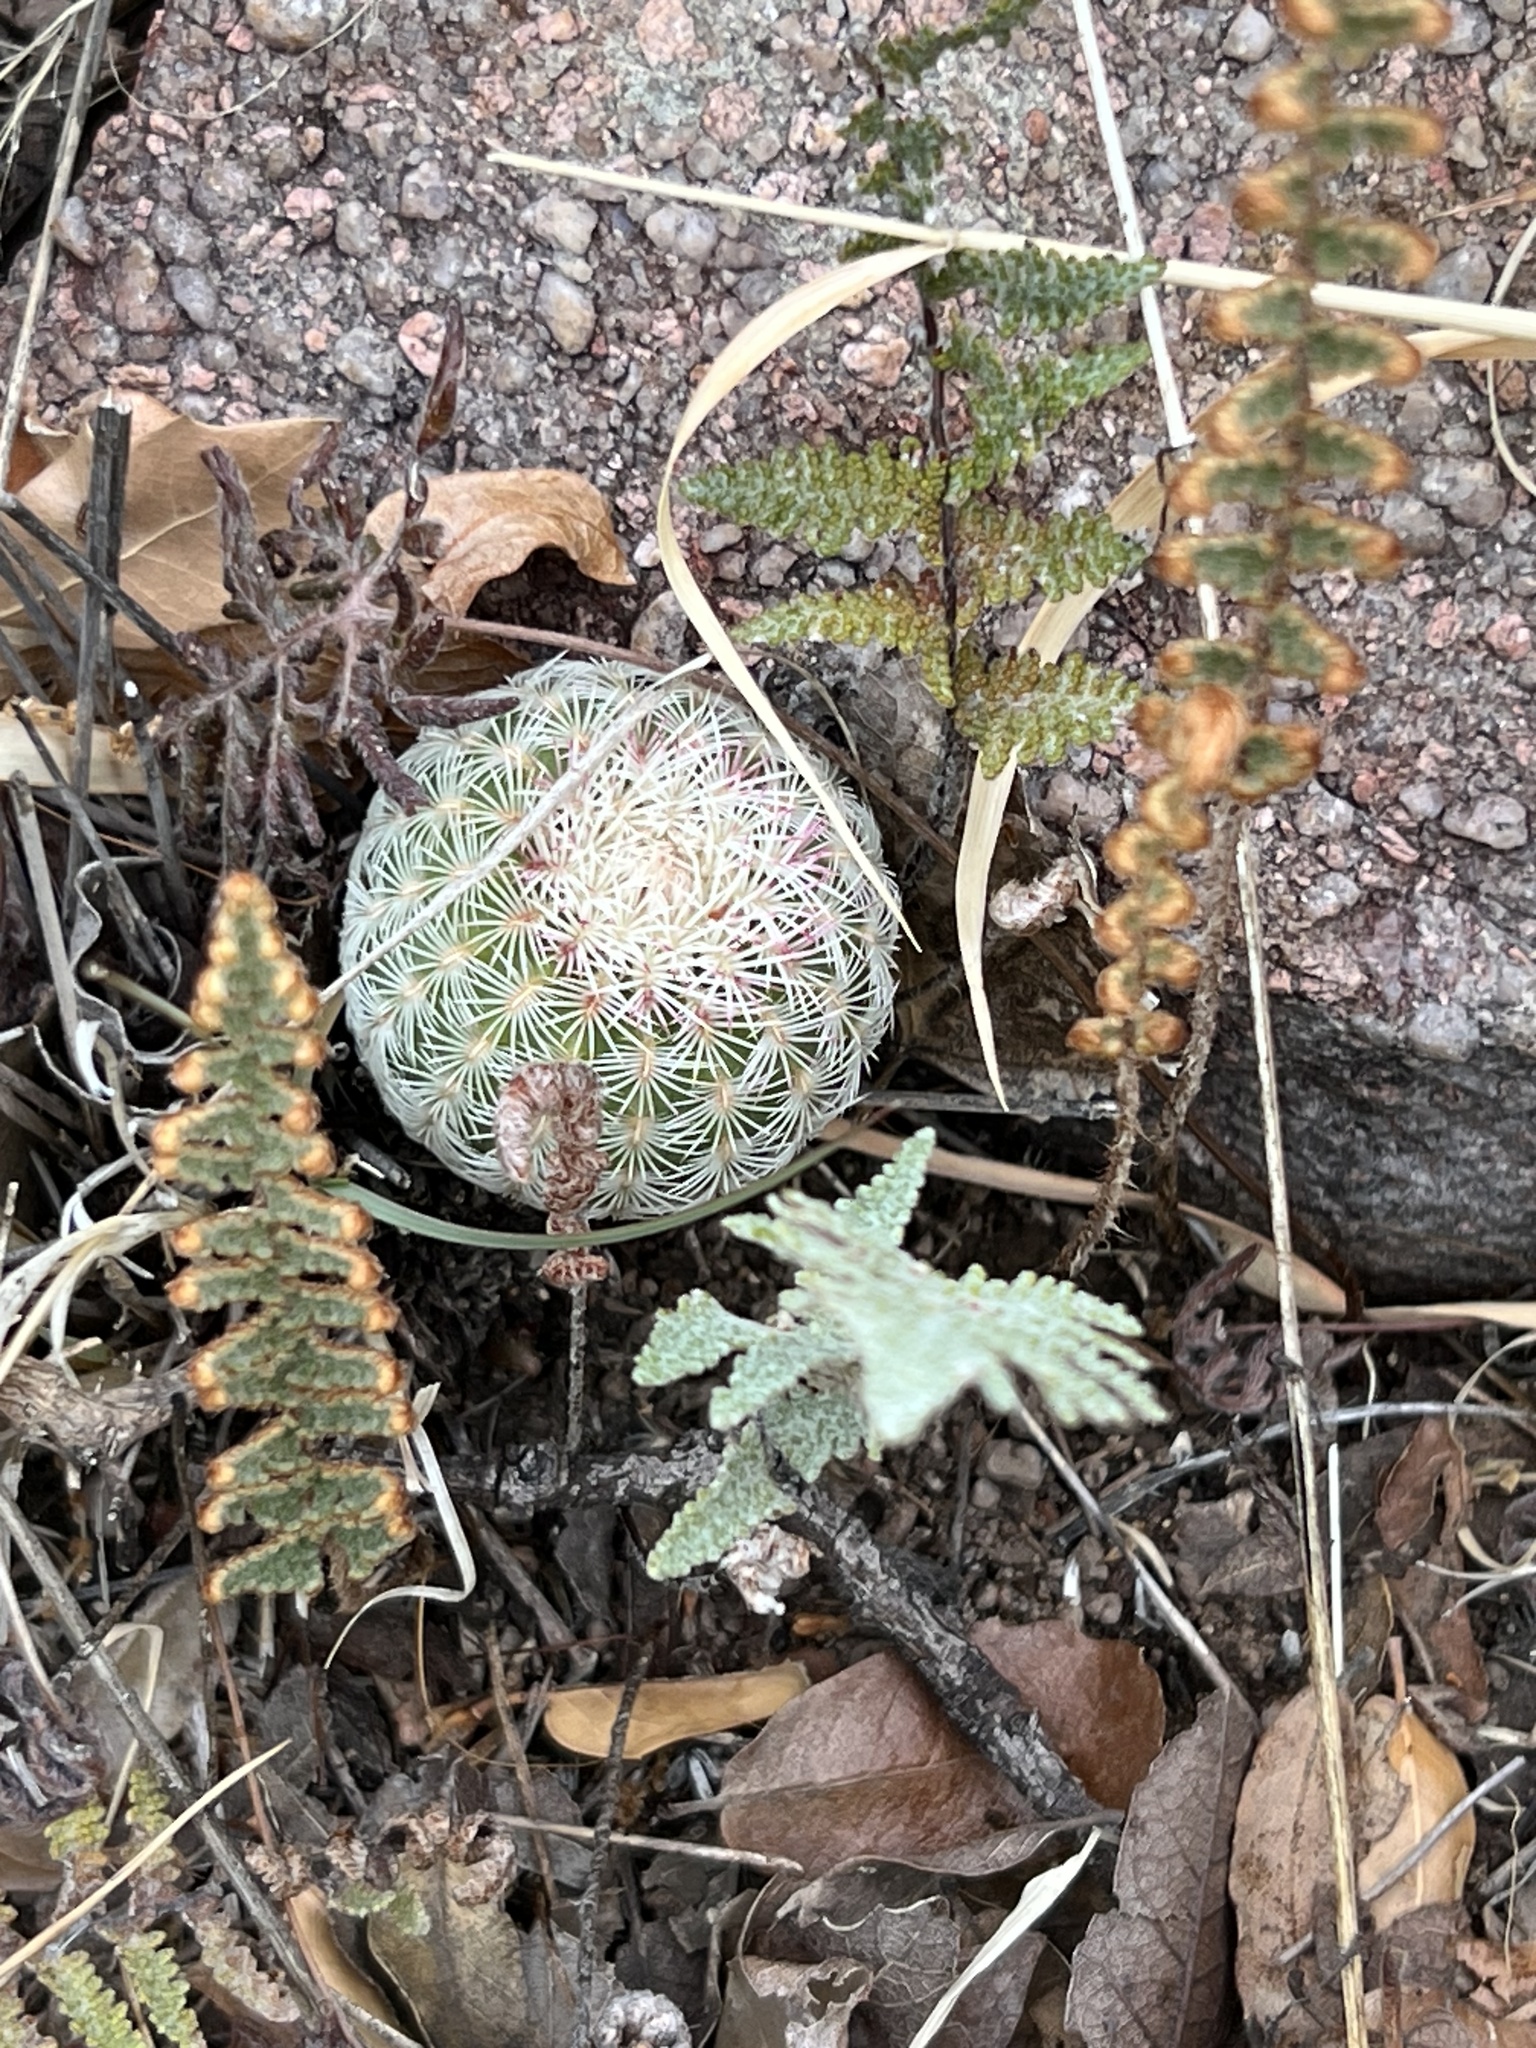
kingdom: Plantae
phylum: Tracheophyta
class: Magnoliopsida
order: Caryophyllales
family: Cactaceae
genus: Echinocereus
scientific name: Echinocereus rigidissimus
